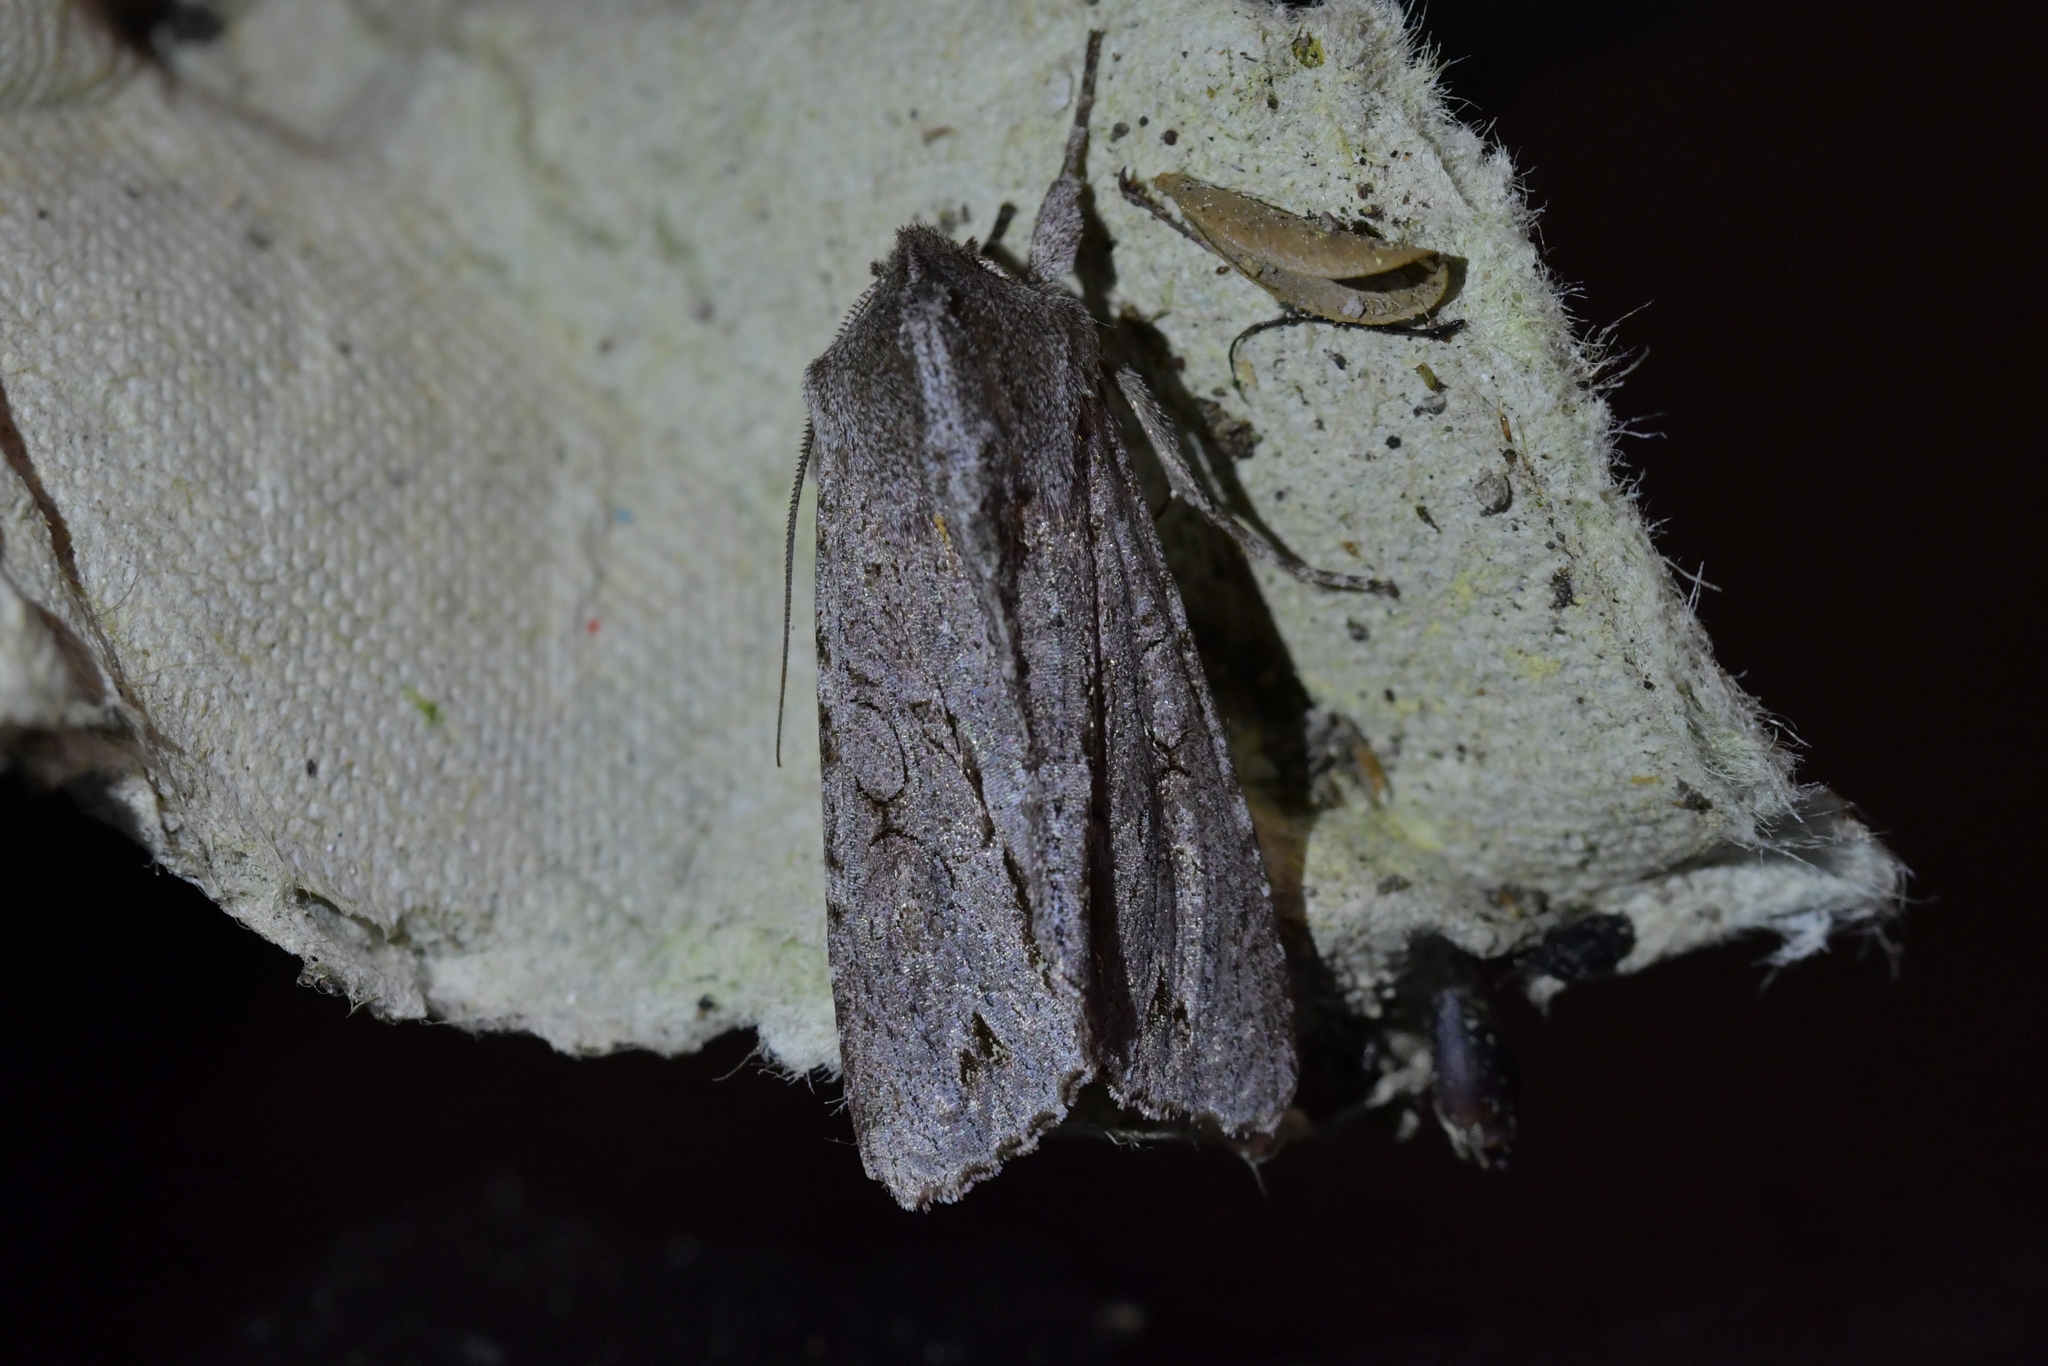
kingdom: Animalia
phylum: Arthropoda
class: Insecta
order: Lepidoptera
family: Noctuidae
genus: Ichneutica
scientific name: Ichneutica
